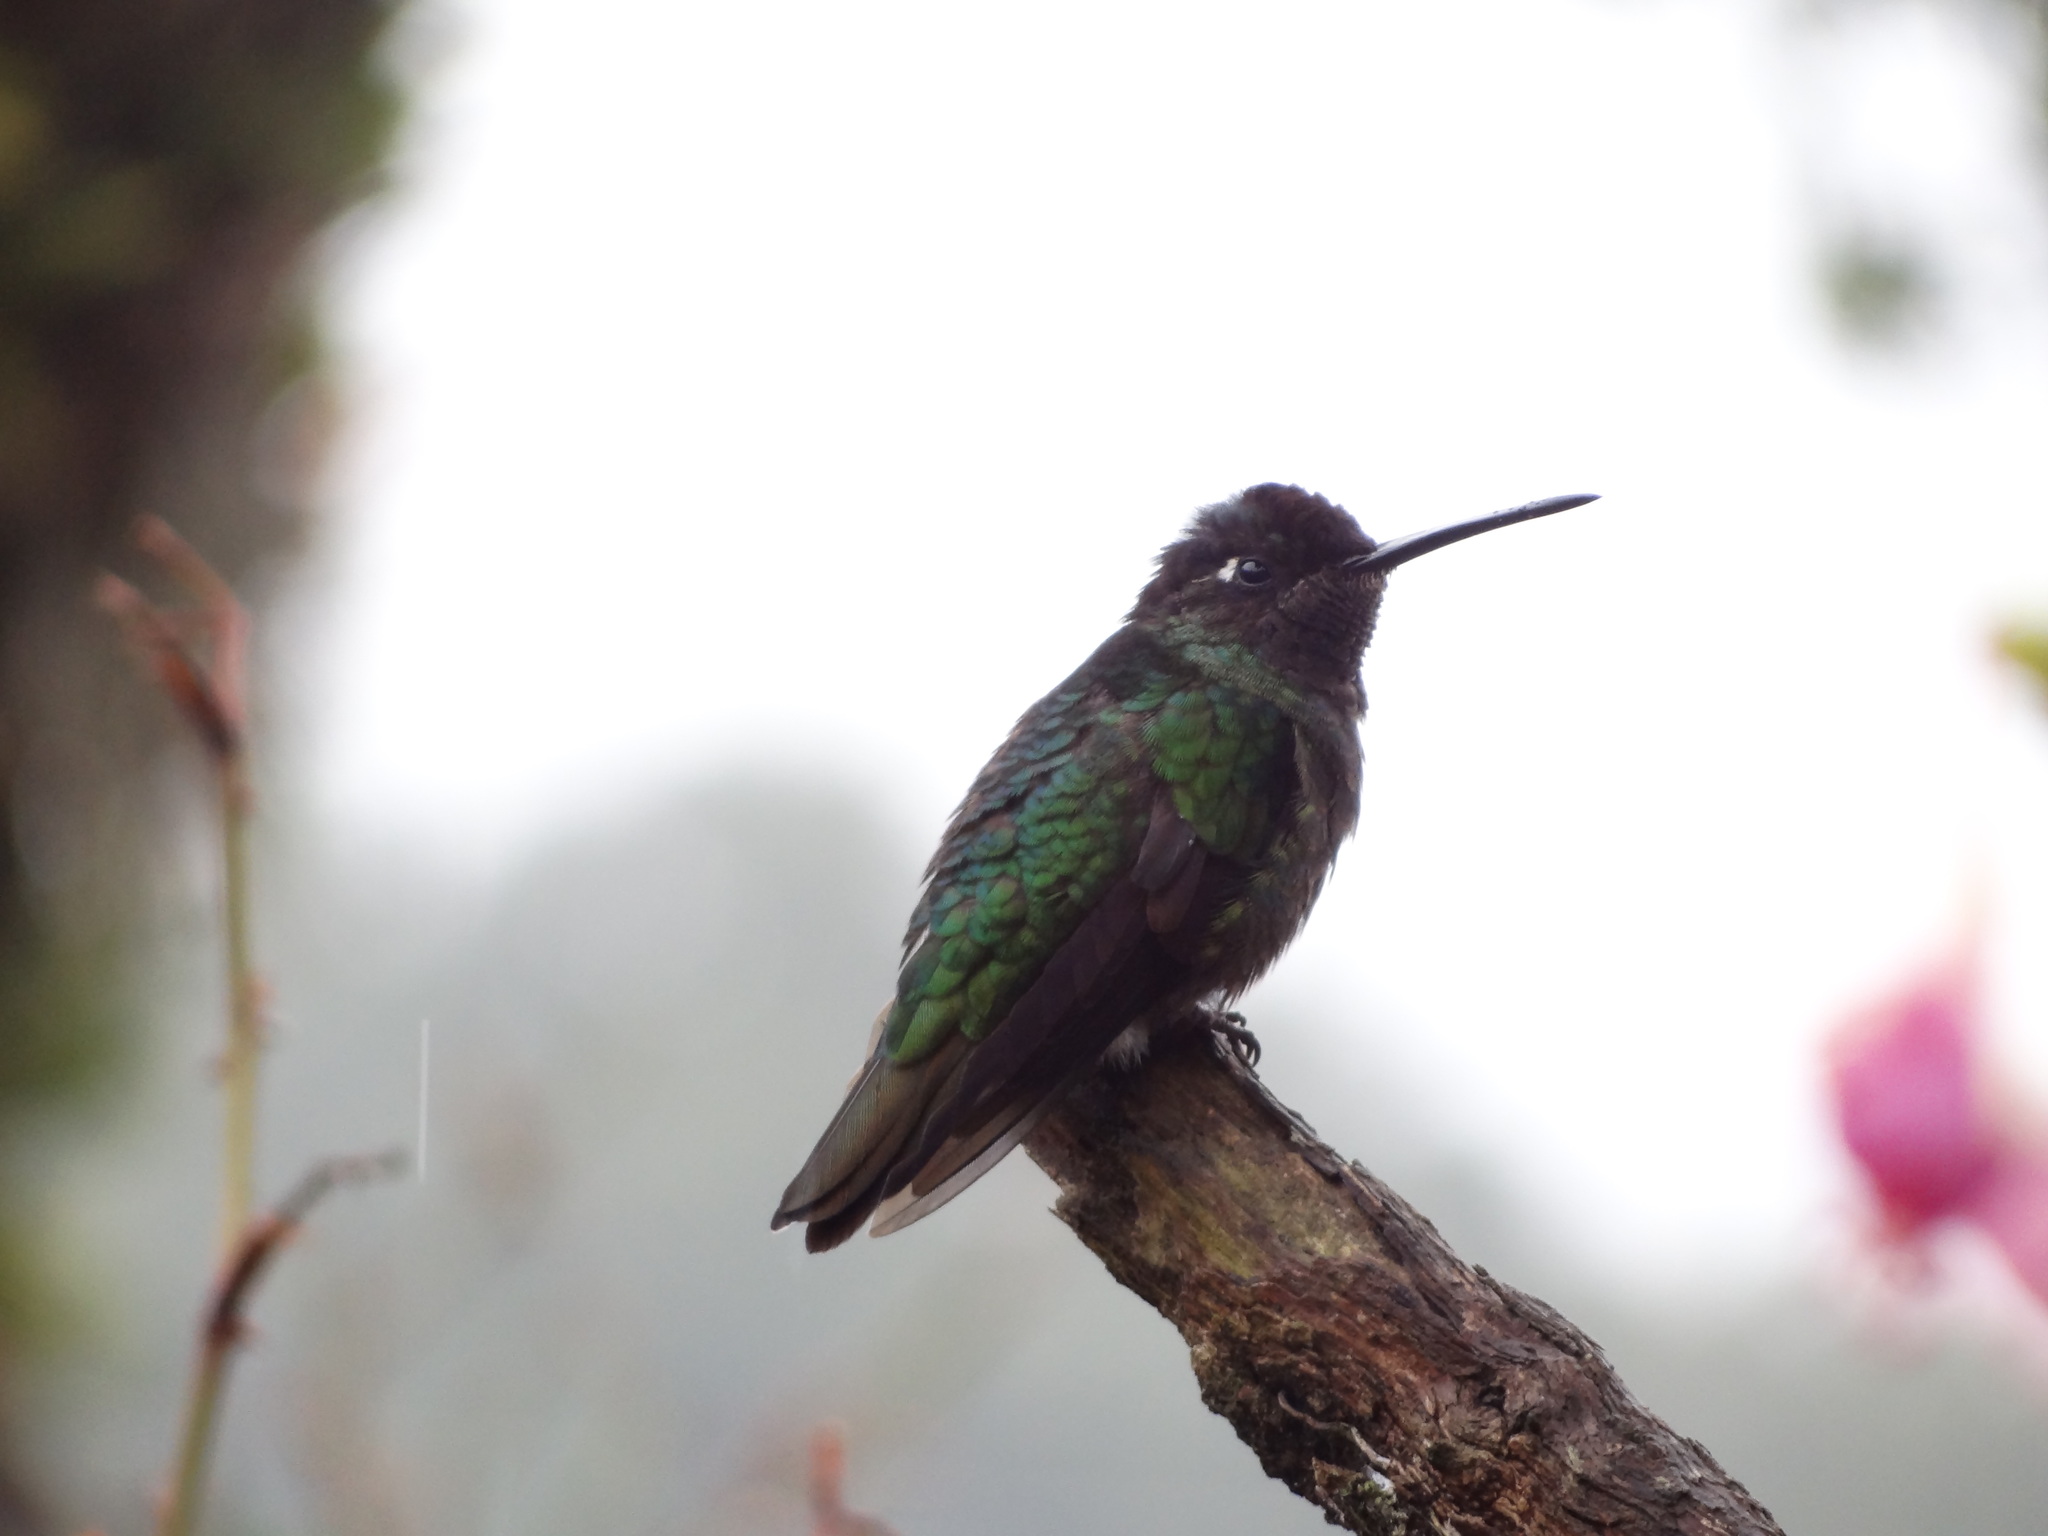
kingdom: Animalia
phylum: Chordata
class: Aves
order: Apodiformes
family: Trochilidae
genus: Eugenes
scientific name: Eugenes spectabilis
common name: Talamanca hummingbird
